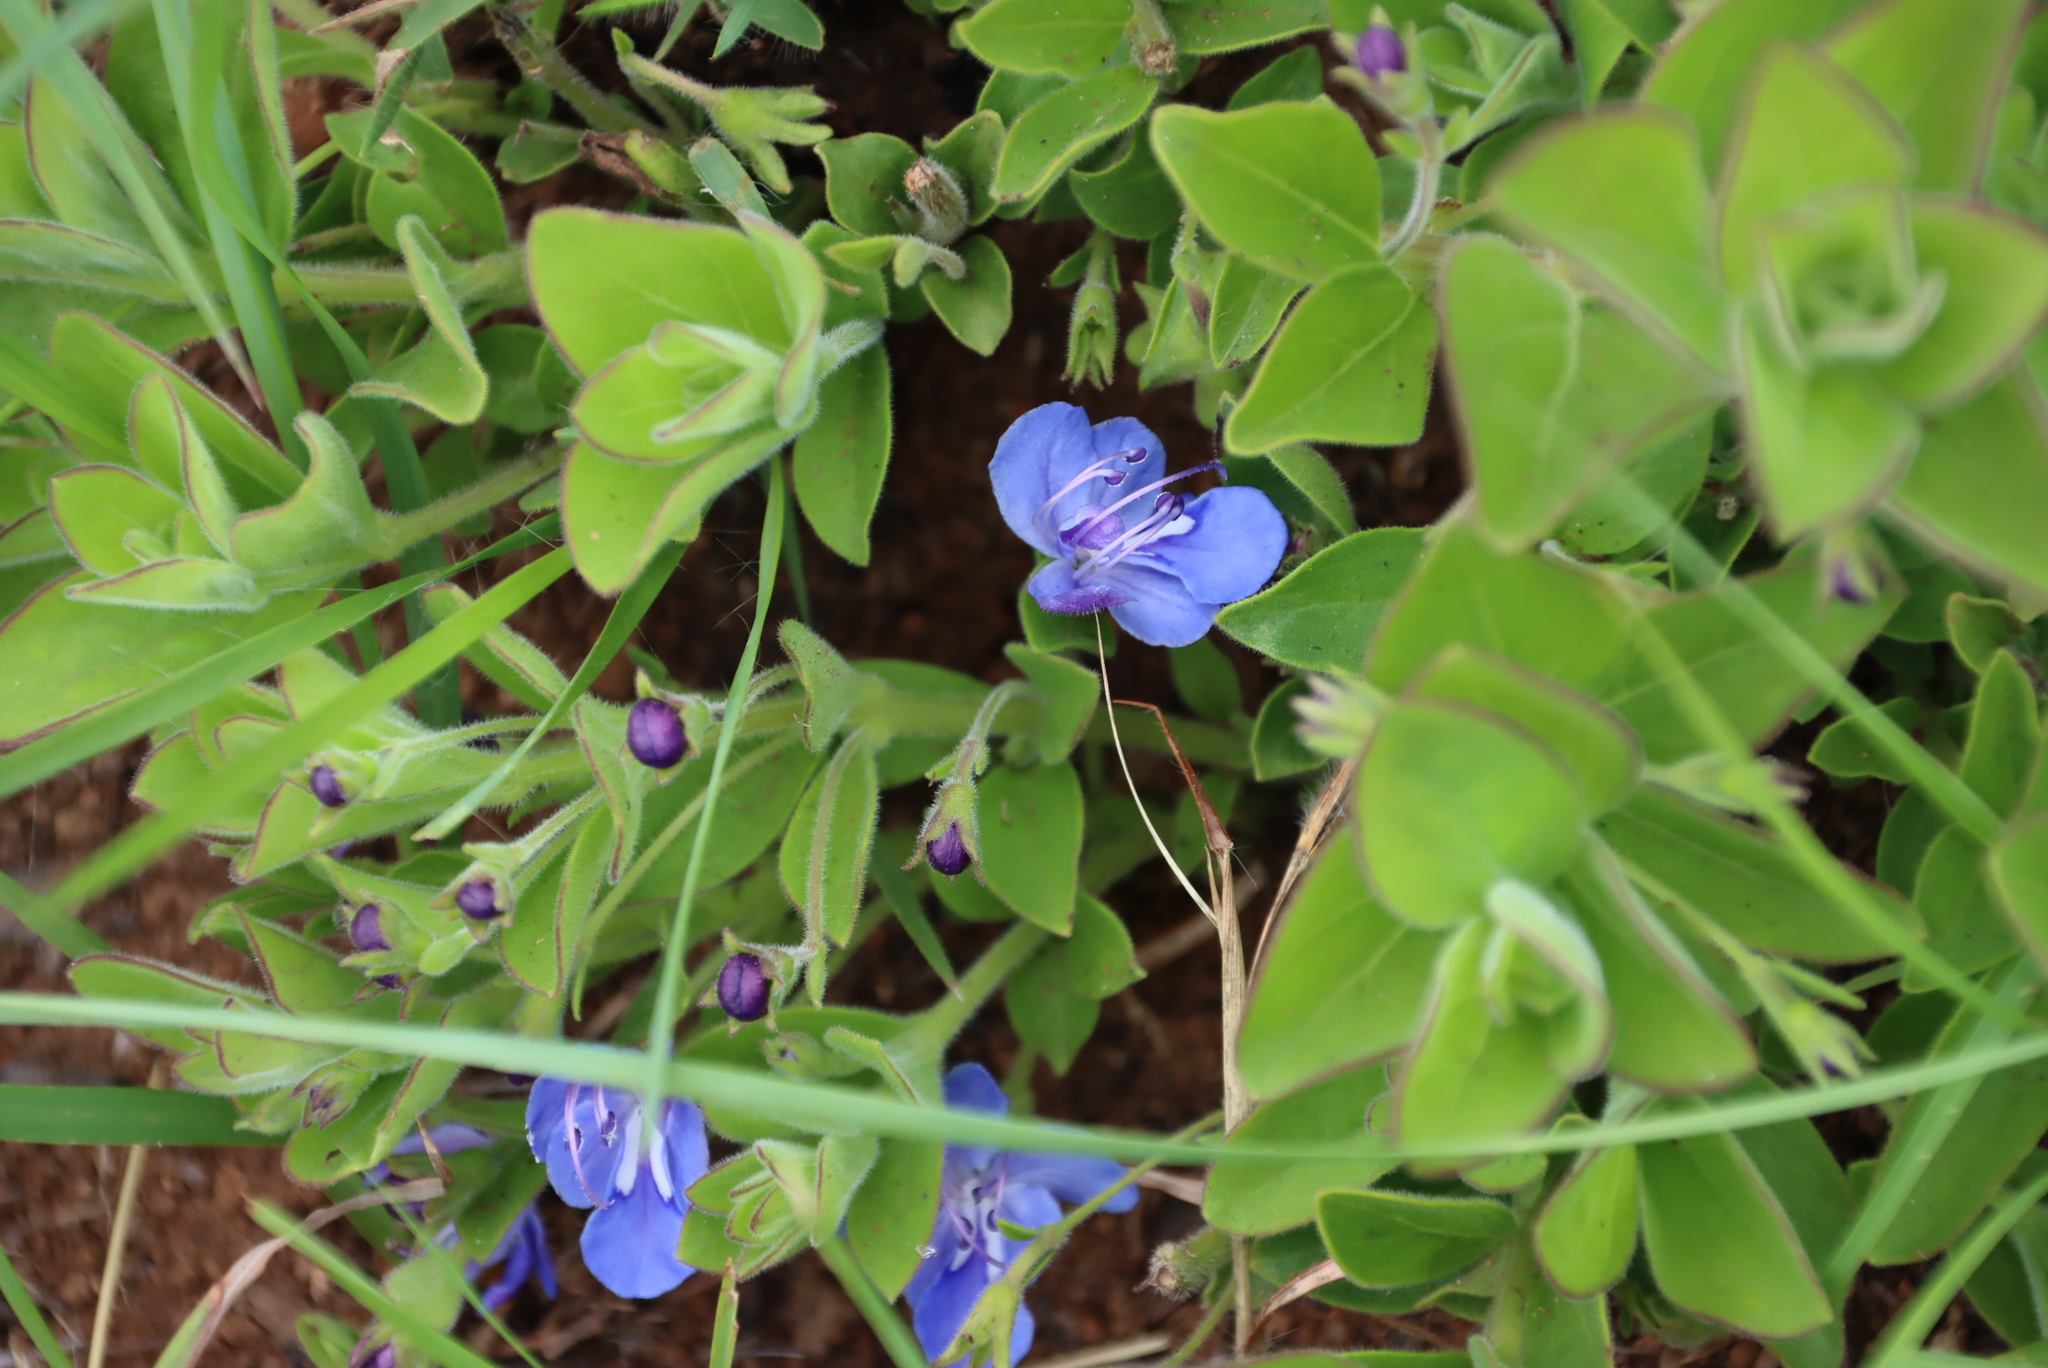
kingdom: Plantae
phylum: Tracheophyta
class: Magnoliopsida
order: Lamiales
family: Lamiaceae
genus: Rotheca
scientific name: Rotheca hirsuta
